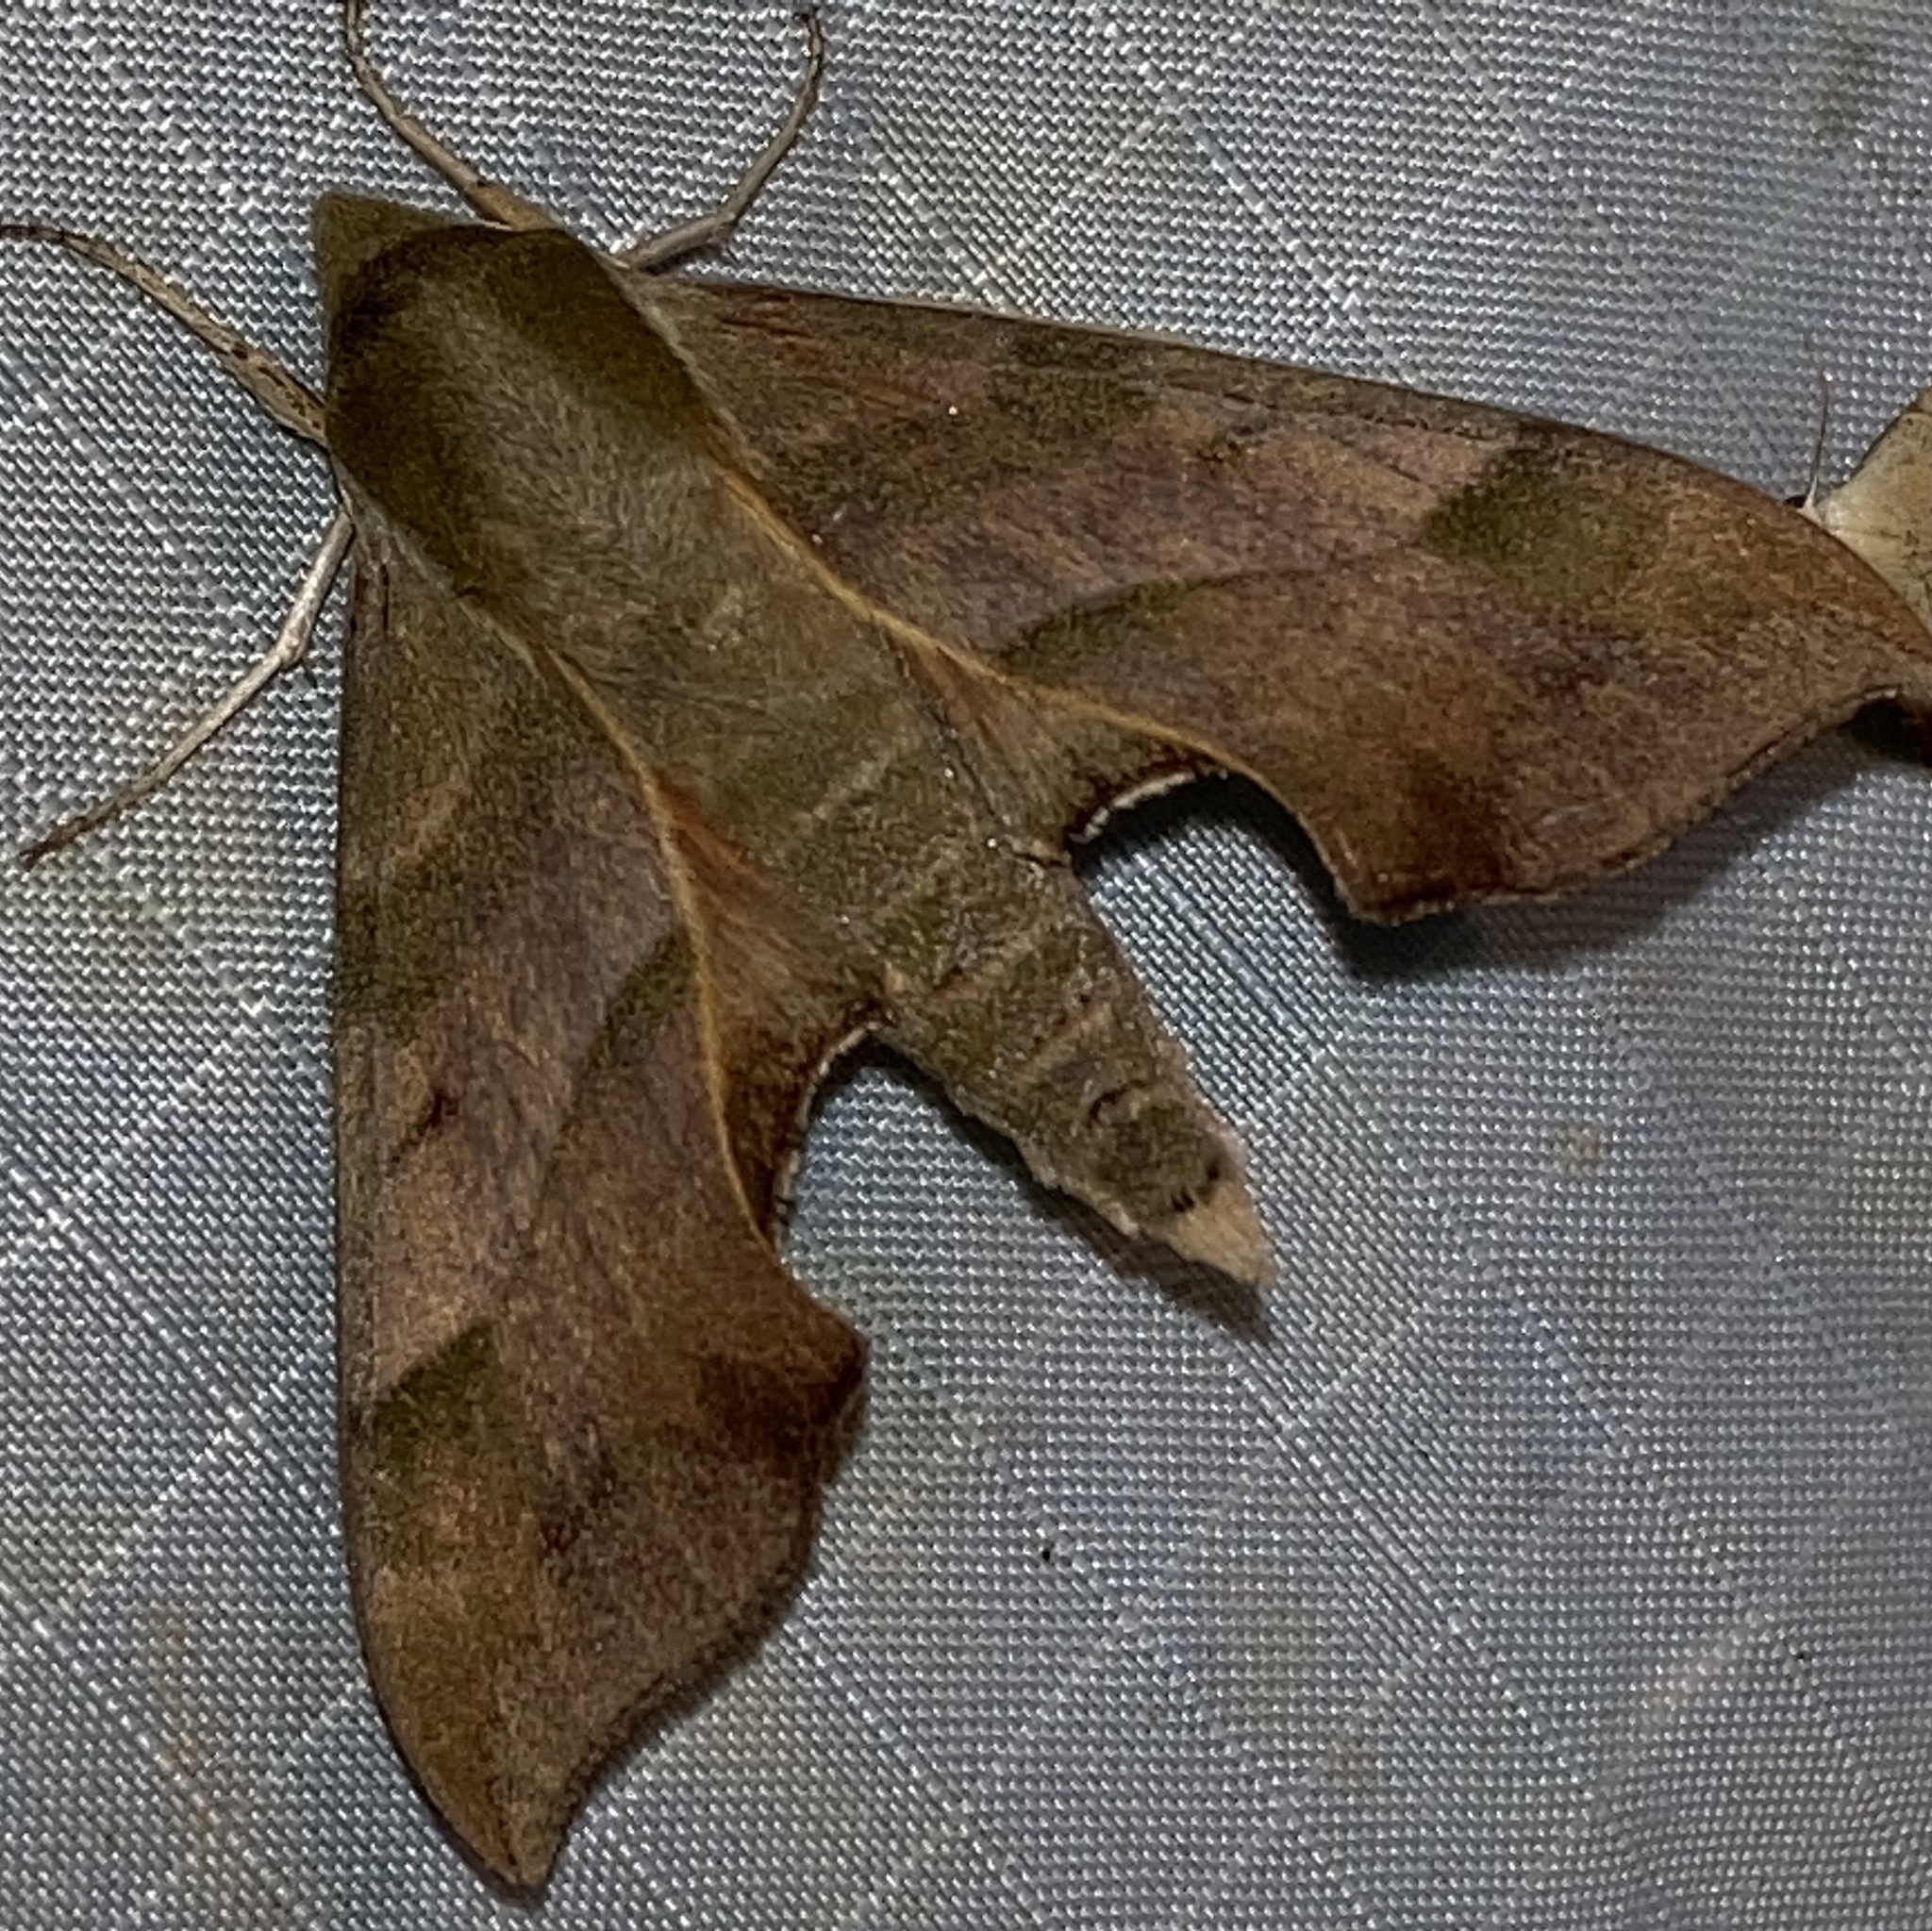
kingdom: Animalia
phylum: Arthropoda
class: Insecta
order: Lepidoptera
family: Sphingidae
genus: Darapsa
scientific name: Darapsa myron
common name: Hog sphinx
